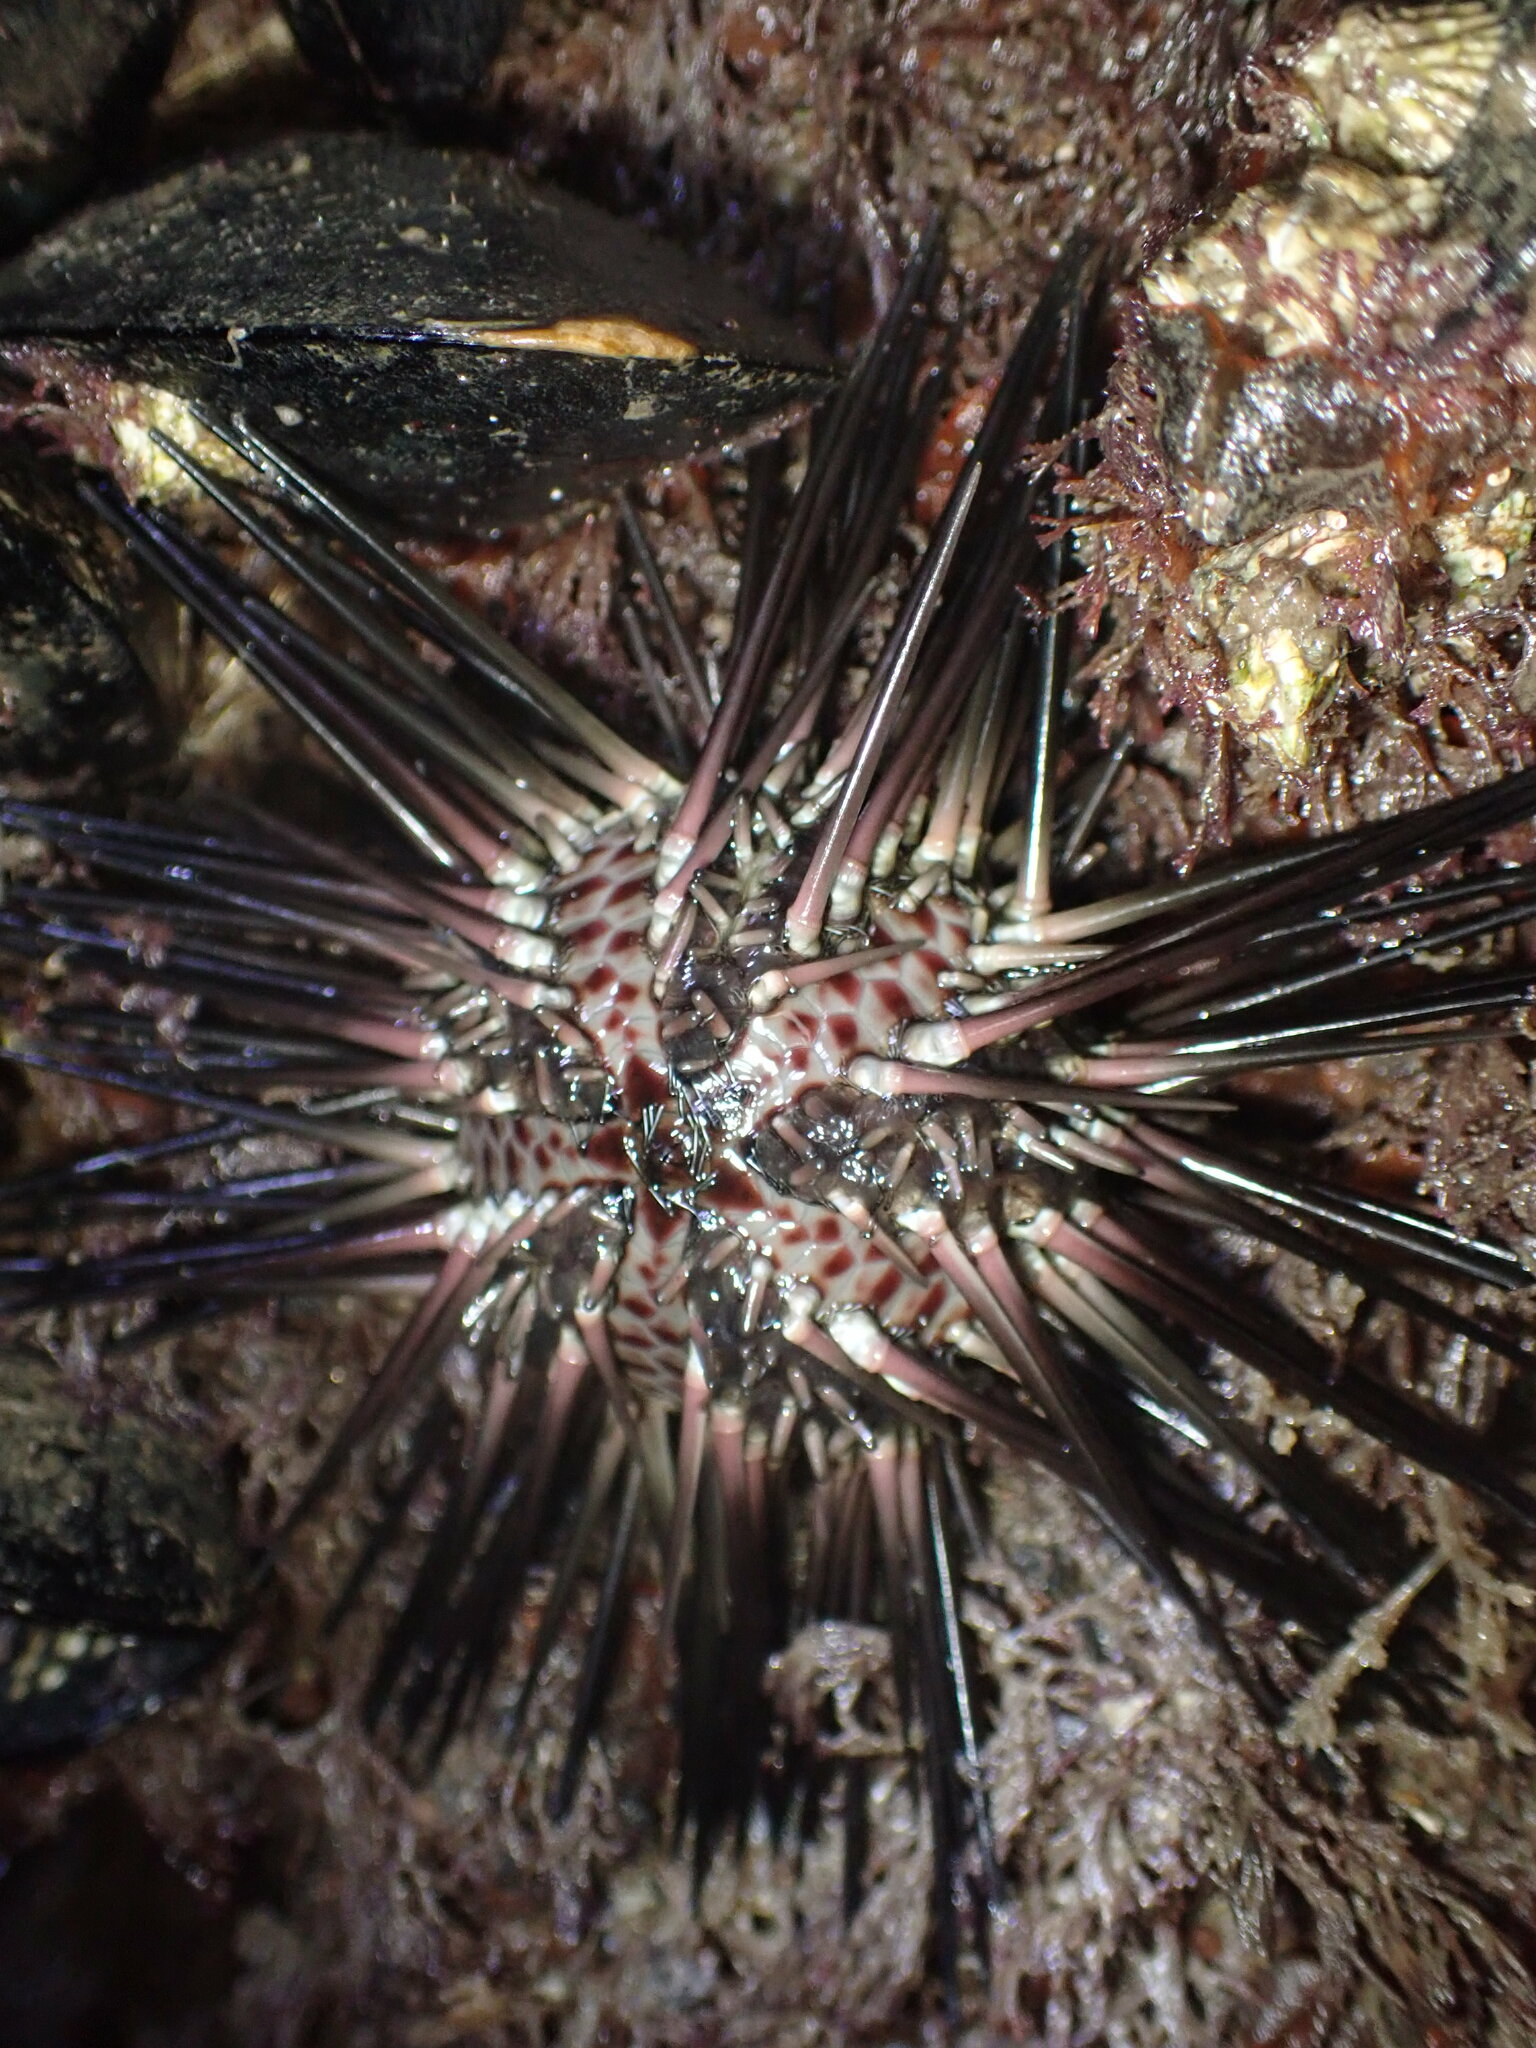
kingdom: Animalia
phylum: Echinodermata
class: Echinoidea
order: Arbacioida
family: Arbaciidae
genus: Arbacia
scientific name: Arbacia stellata
